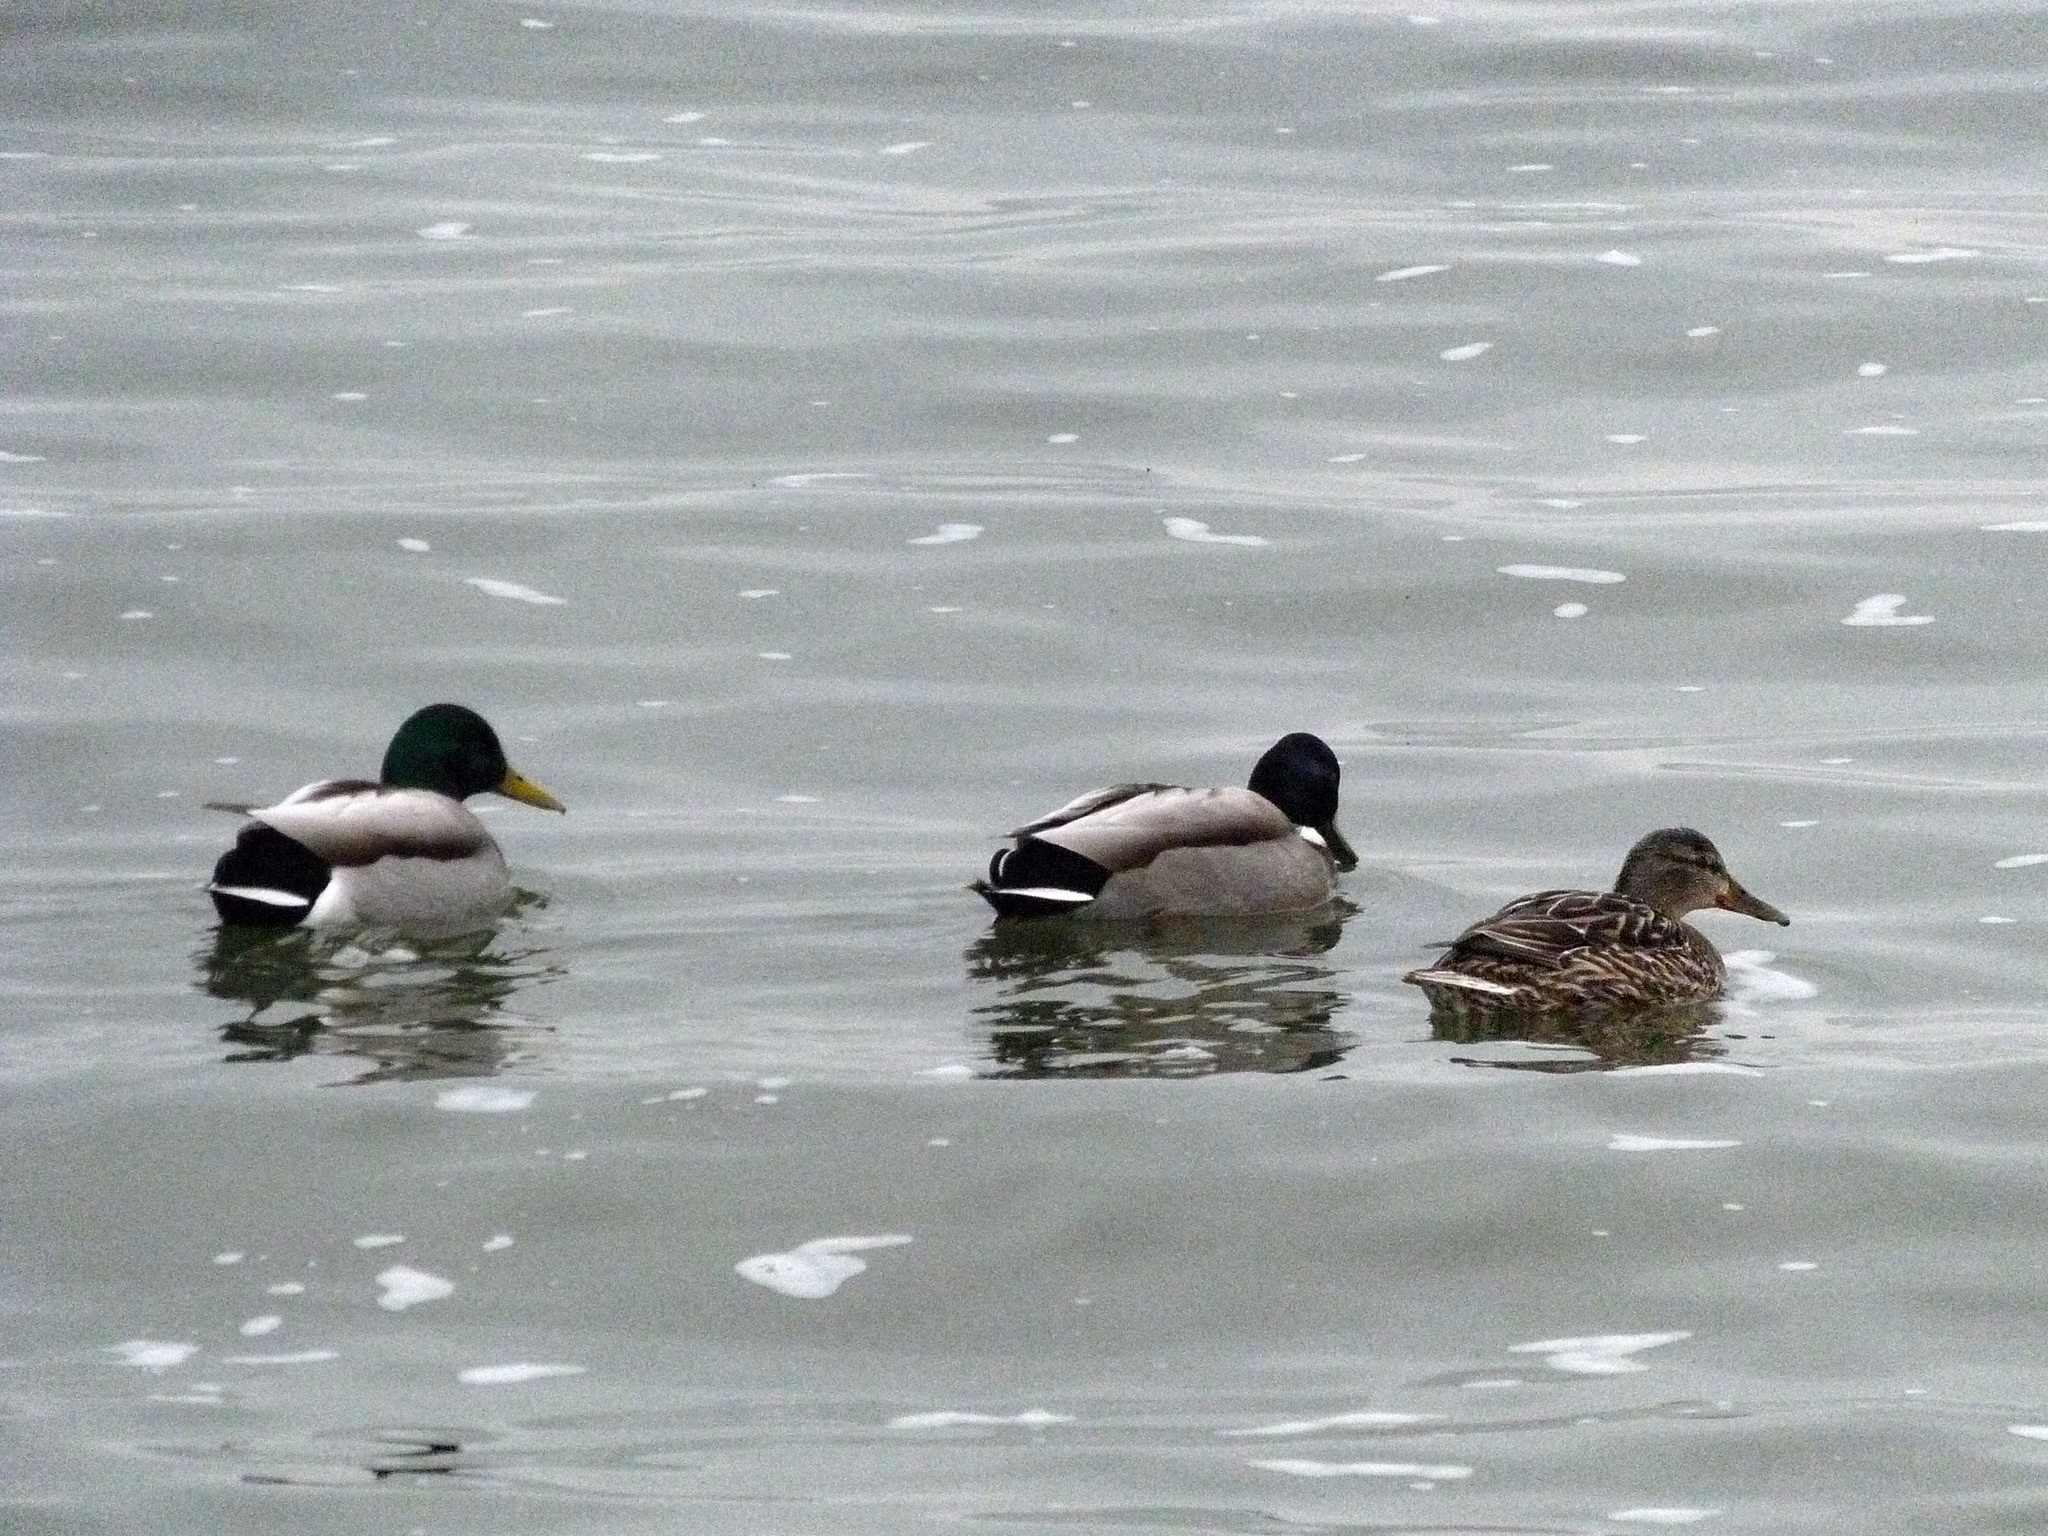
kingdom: Animalia
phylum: Chordata
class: Aves
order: Anseriformes
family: Anatidae
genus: Anas
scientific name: Anas platyrhynchos
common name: Mallard
